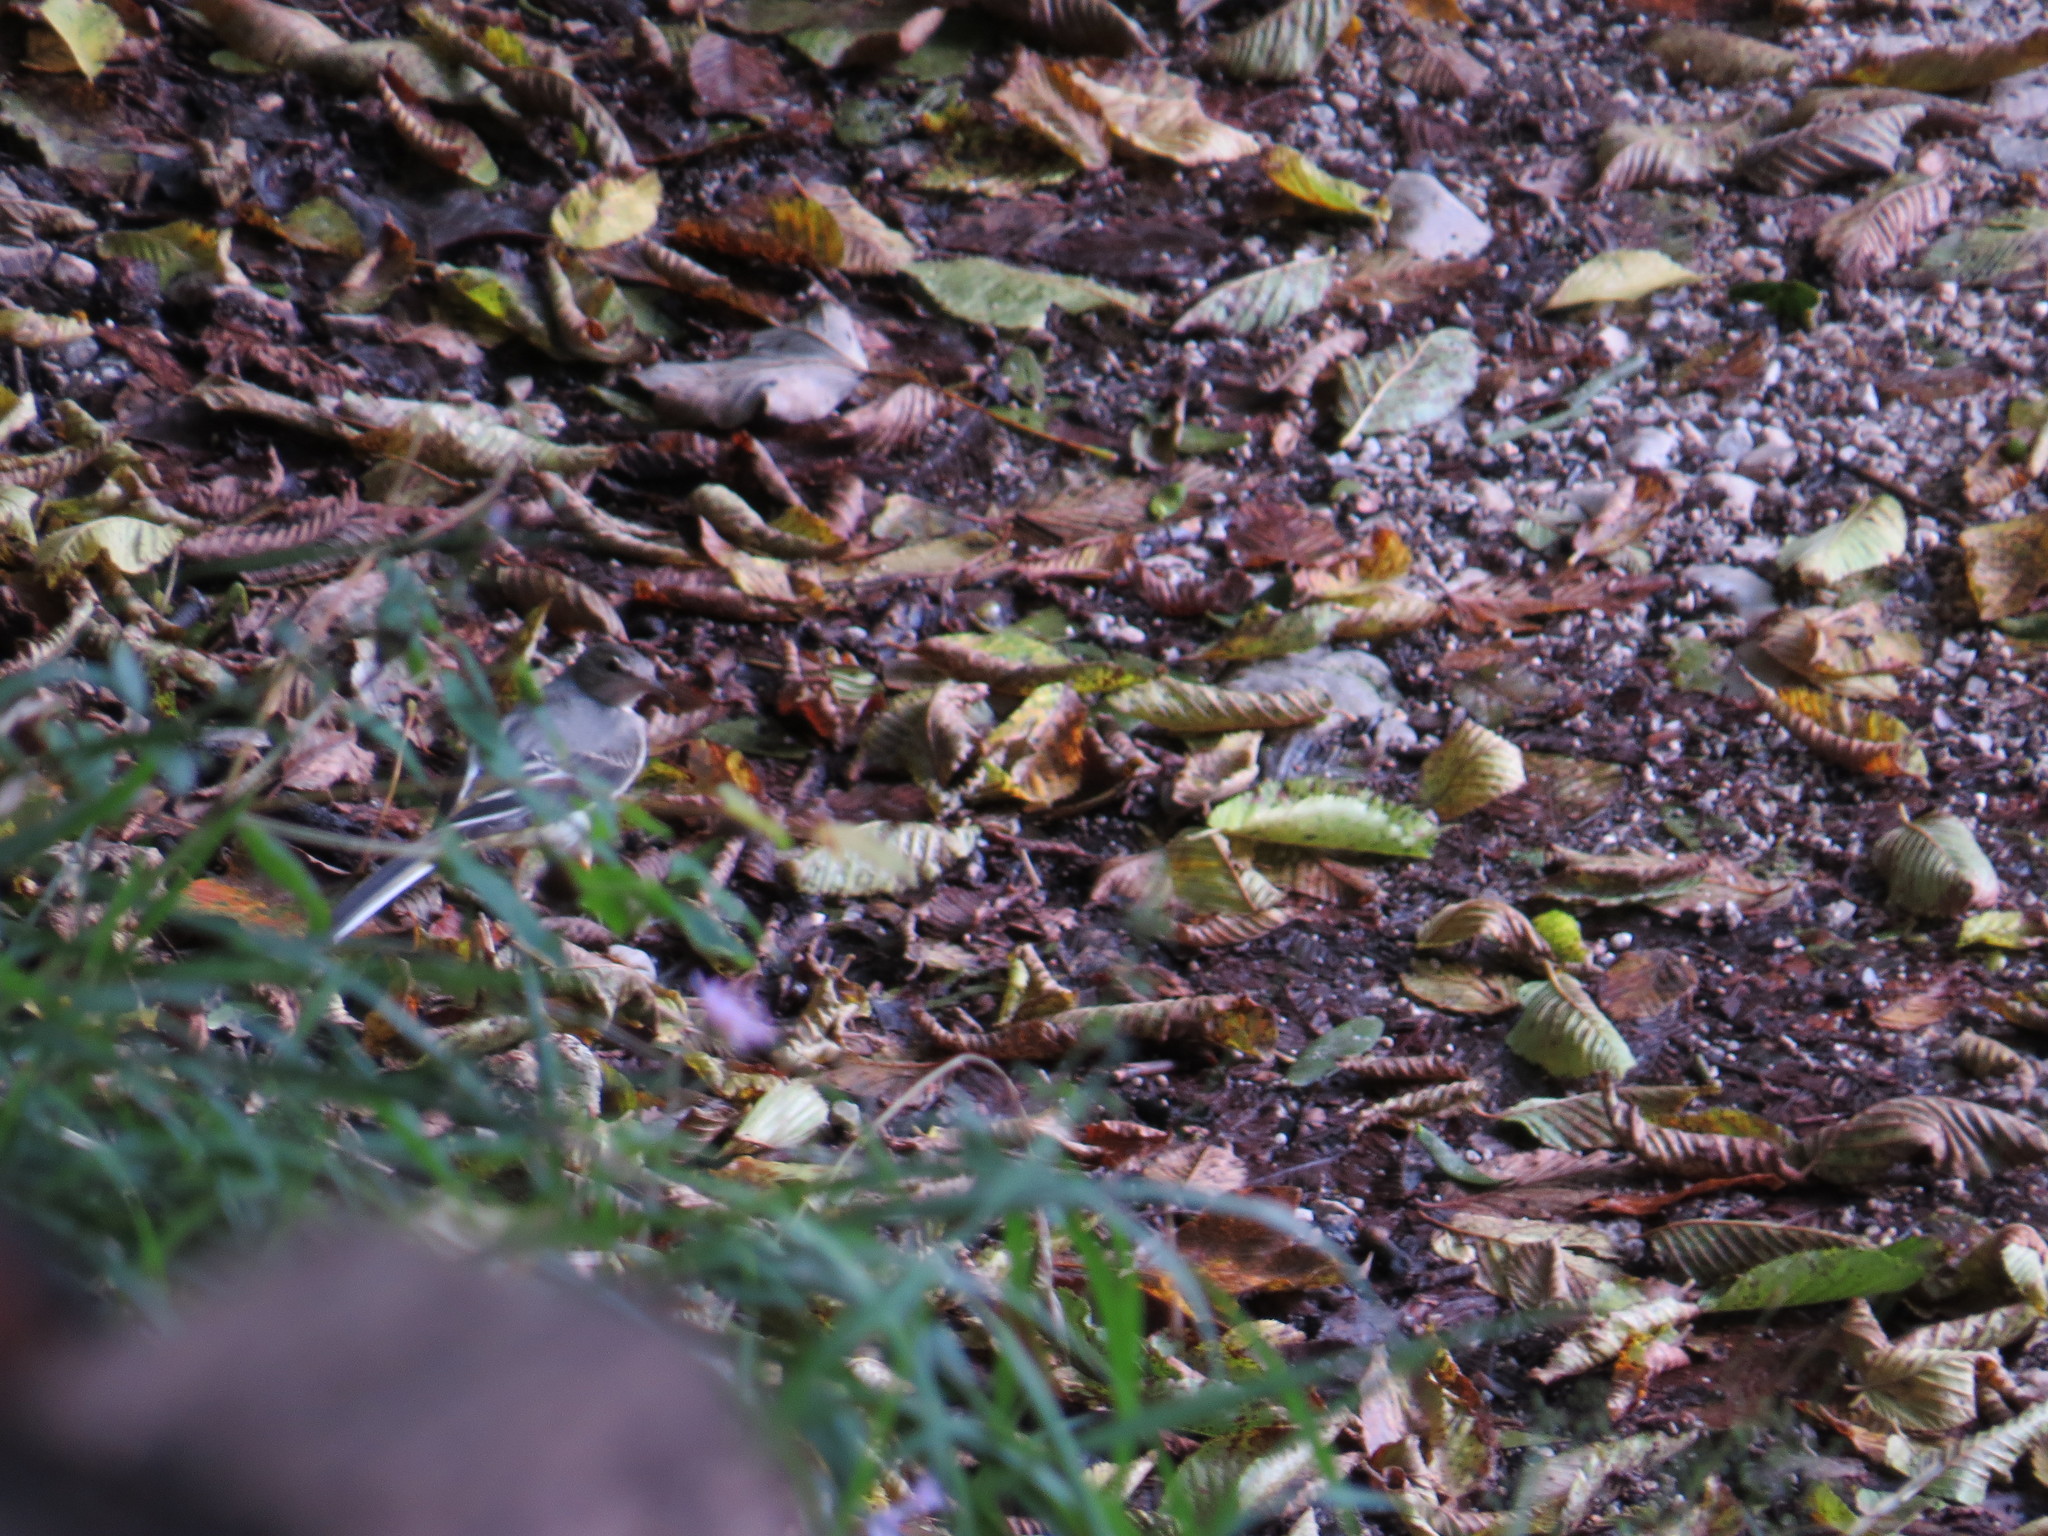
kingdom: Animalia
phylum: Chordata
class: Aves
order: Passeriformes
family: Motacillidae
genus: Motacilla
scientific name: Motacilla cinerea
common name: Grey wagtail
